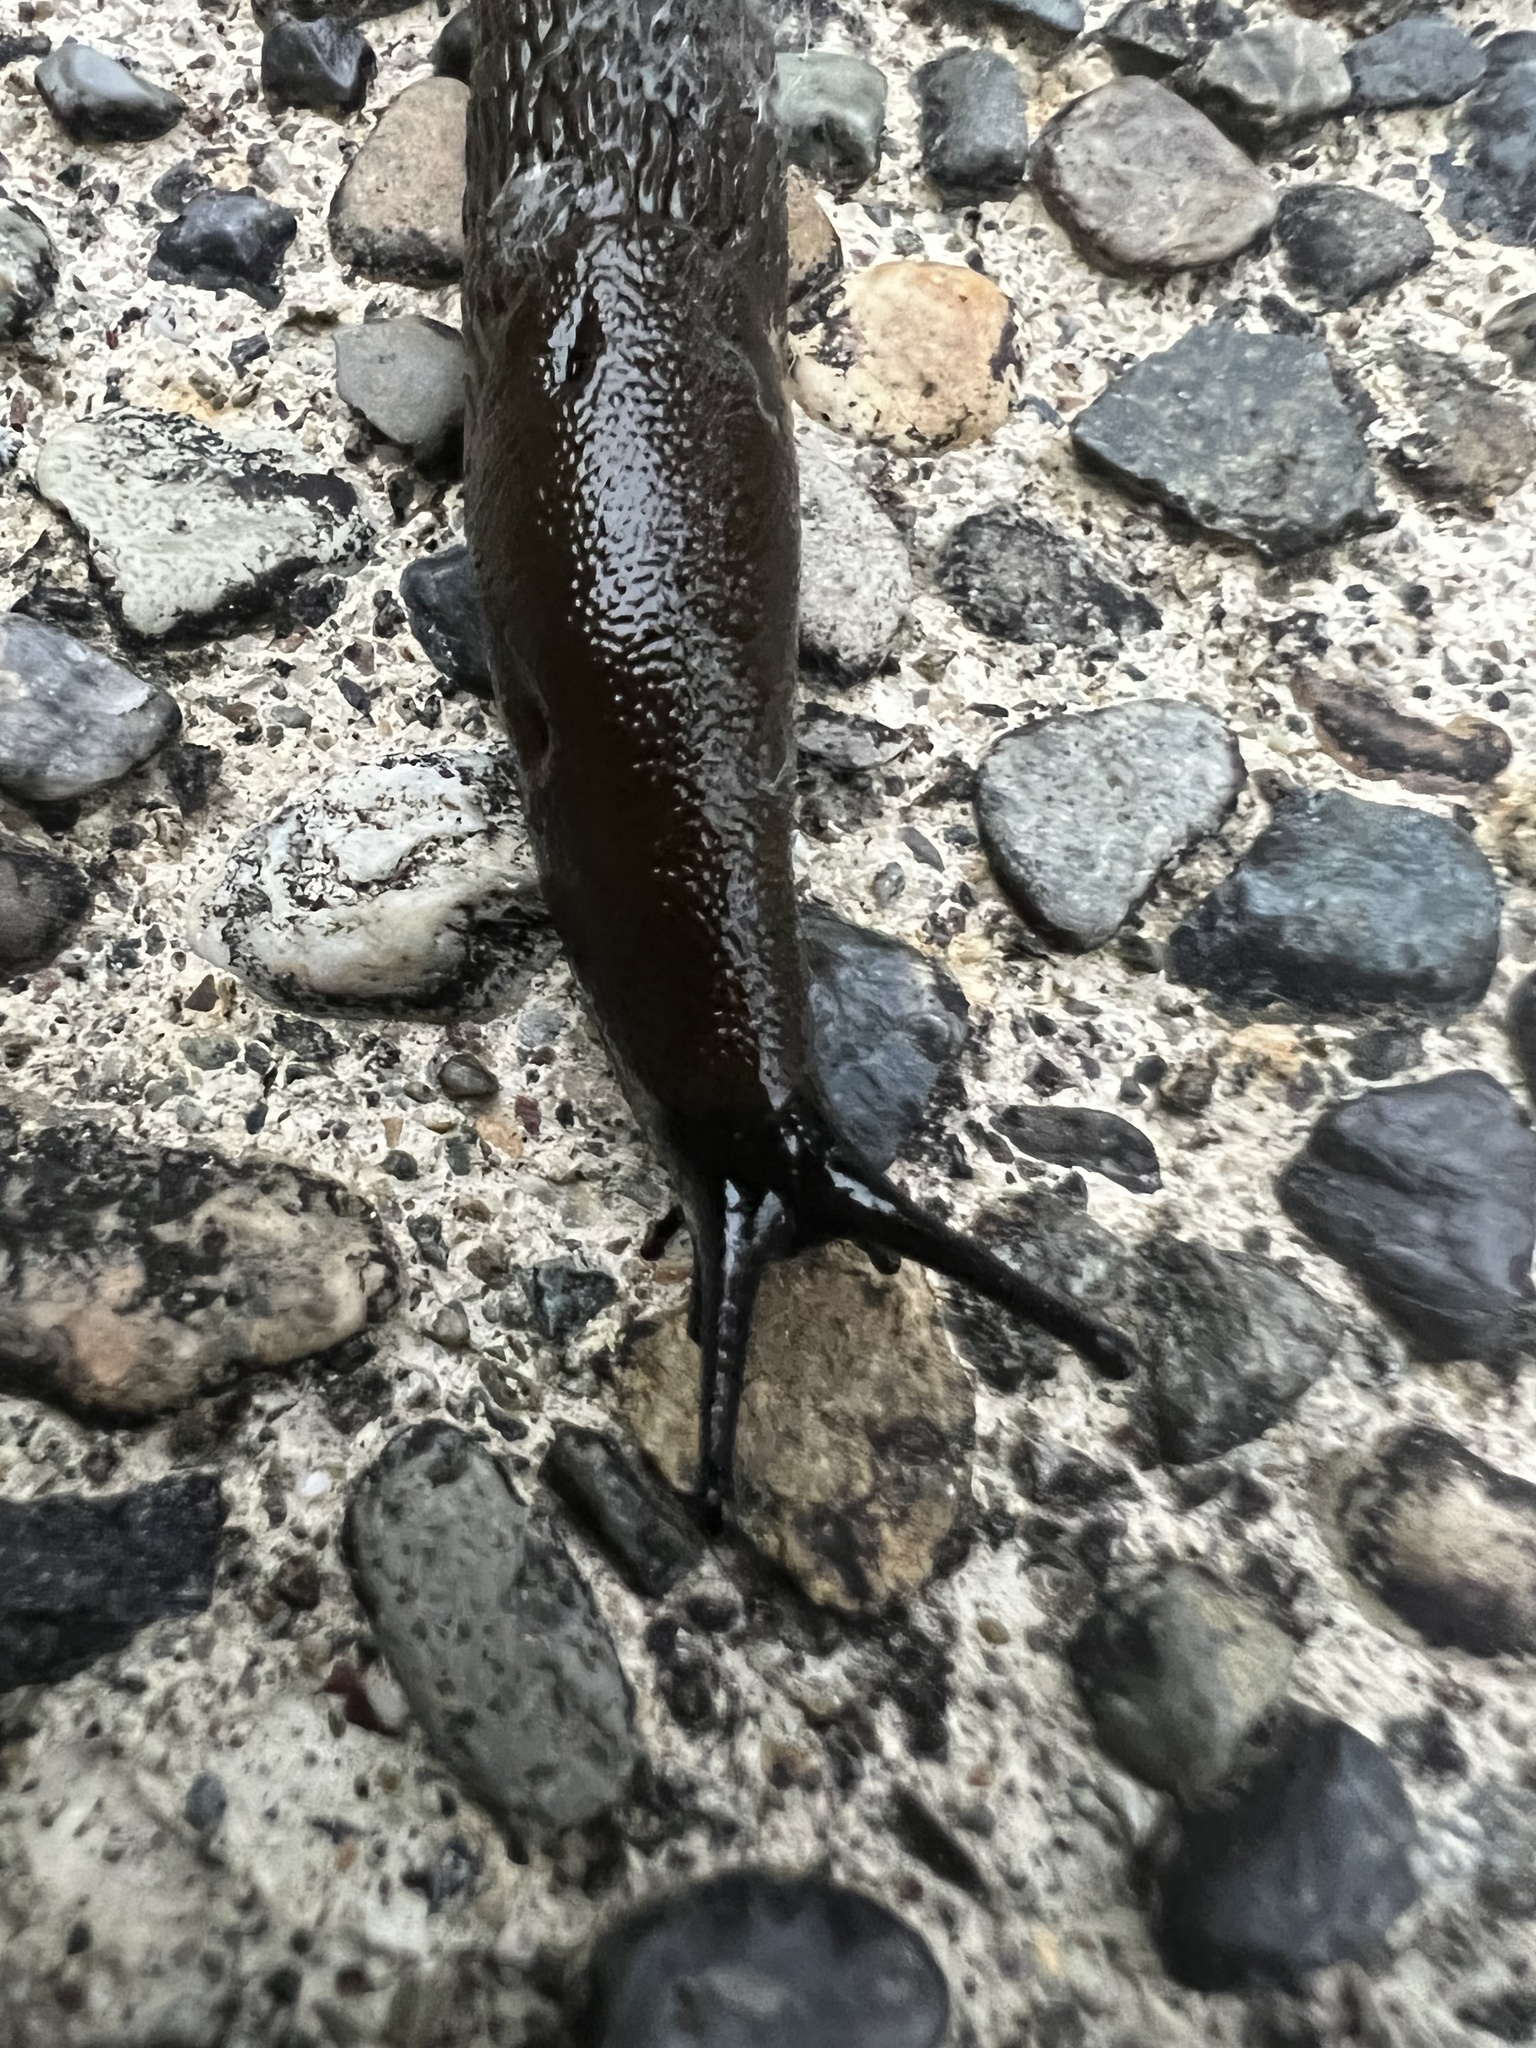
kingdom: Animalia
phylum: Mollusca
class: Gastropoda
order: Stylommatophora
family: Arionidae
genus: Arion
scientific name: Arion
